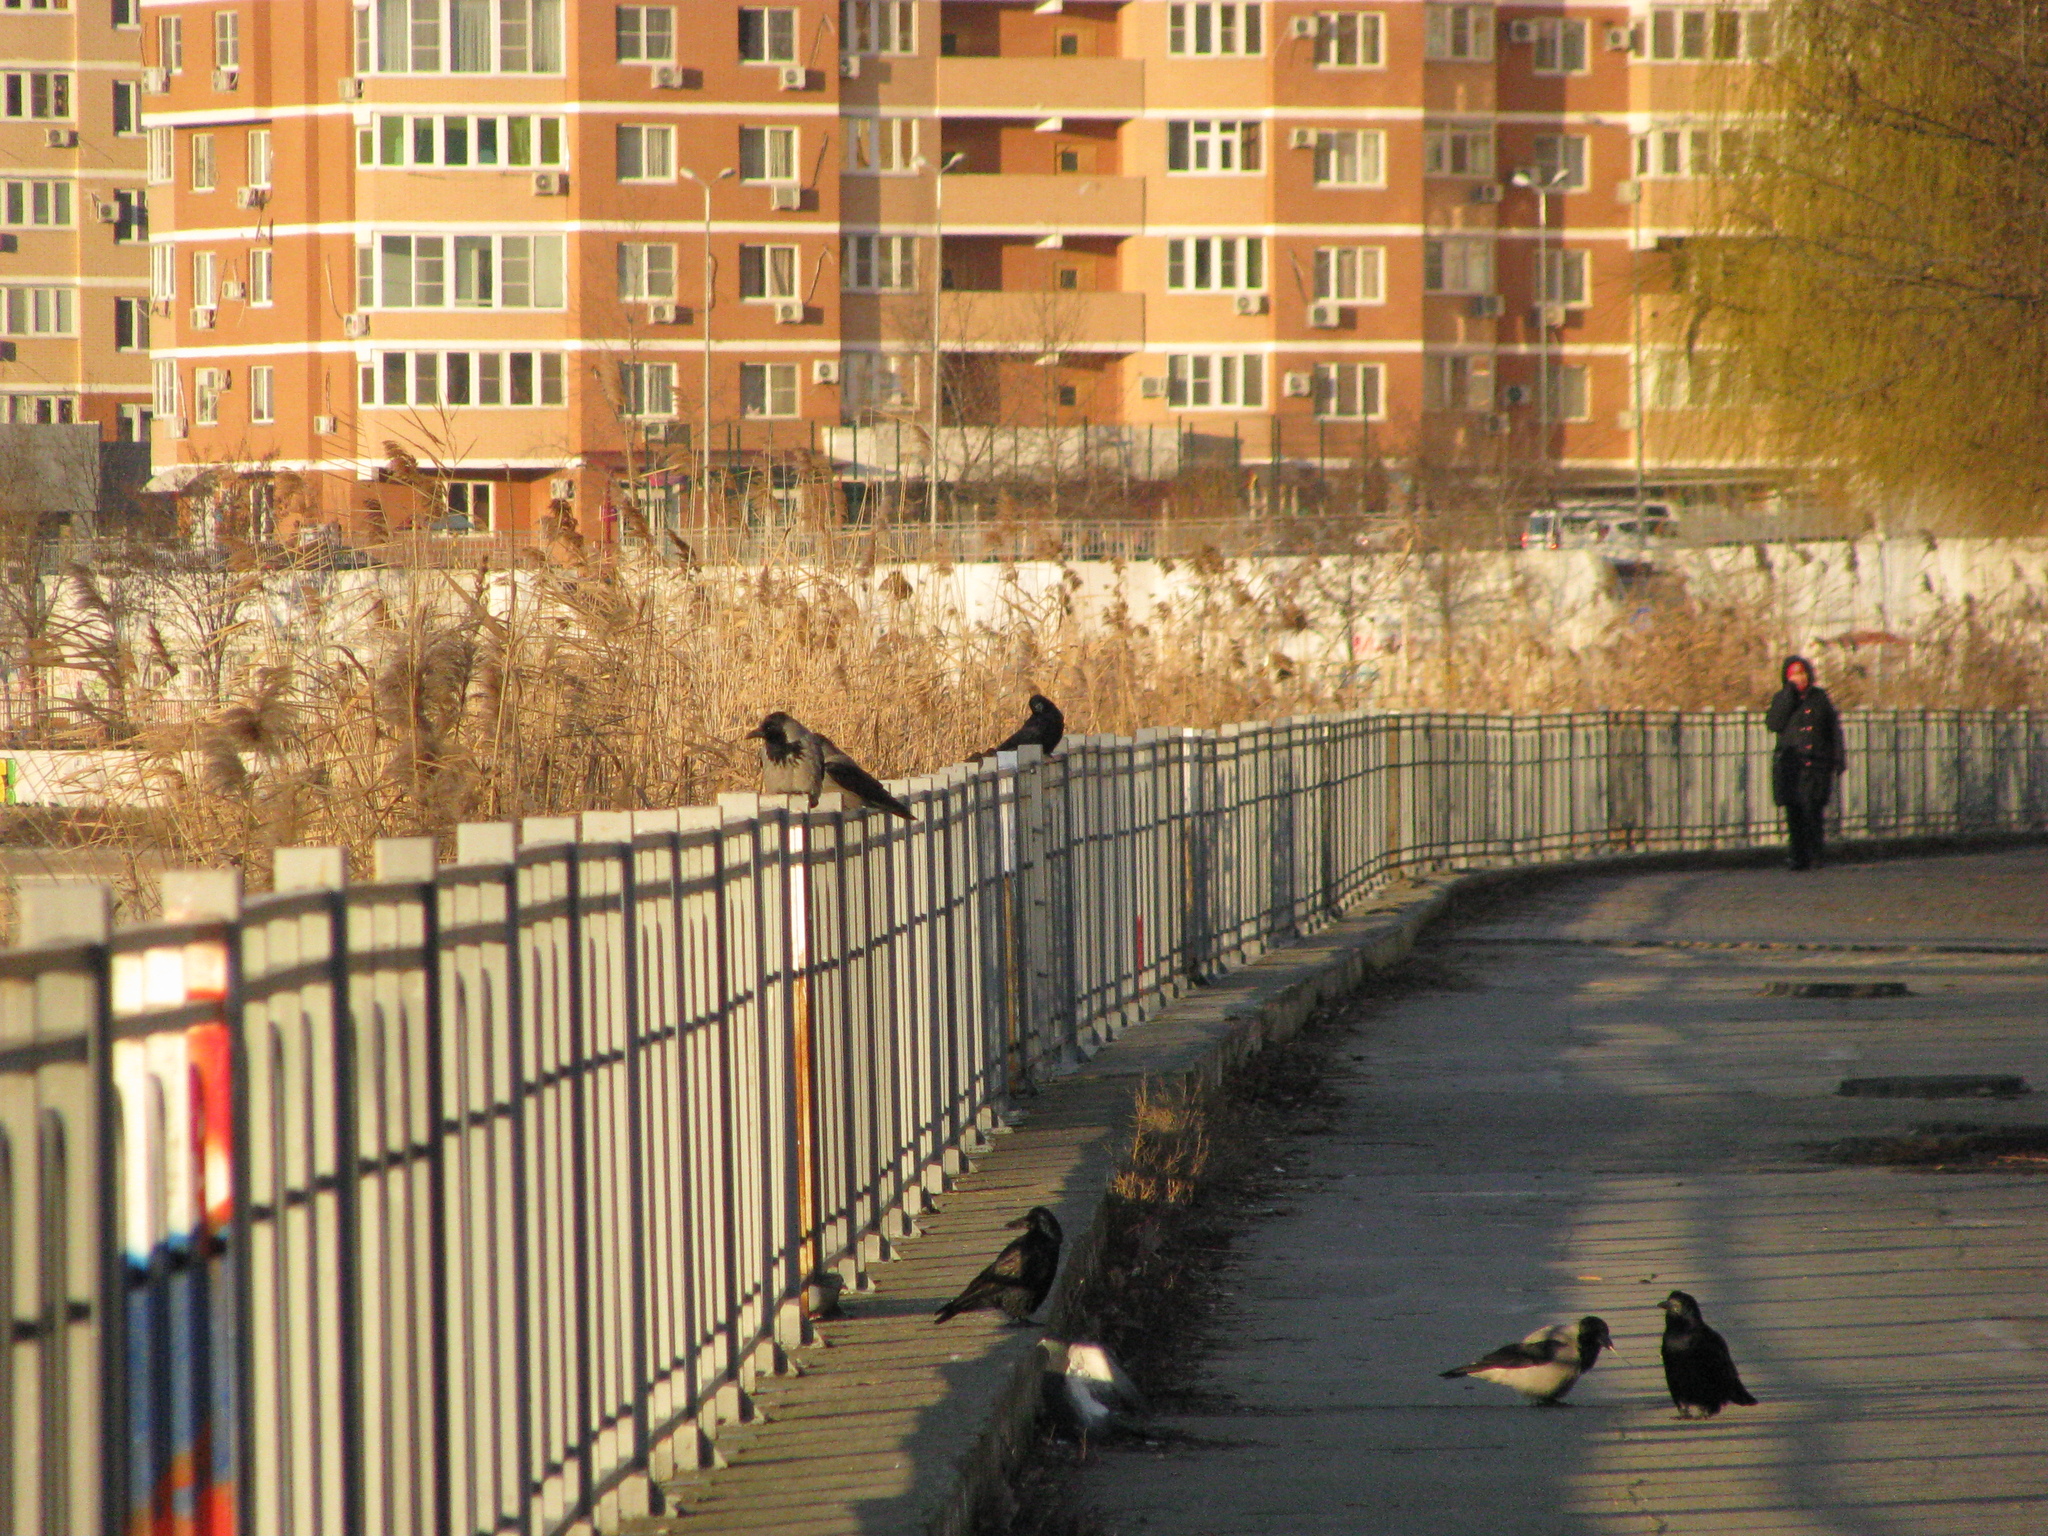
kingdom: Animalia
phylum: Chordata
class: Aves
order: Passeriformes
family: Corvidae
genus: Corvus
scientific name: Corvus cornix
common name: Hooded crow
